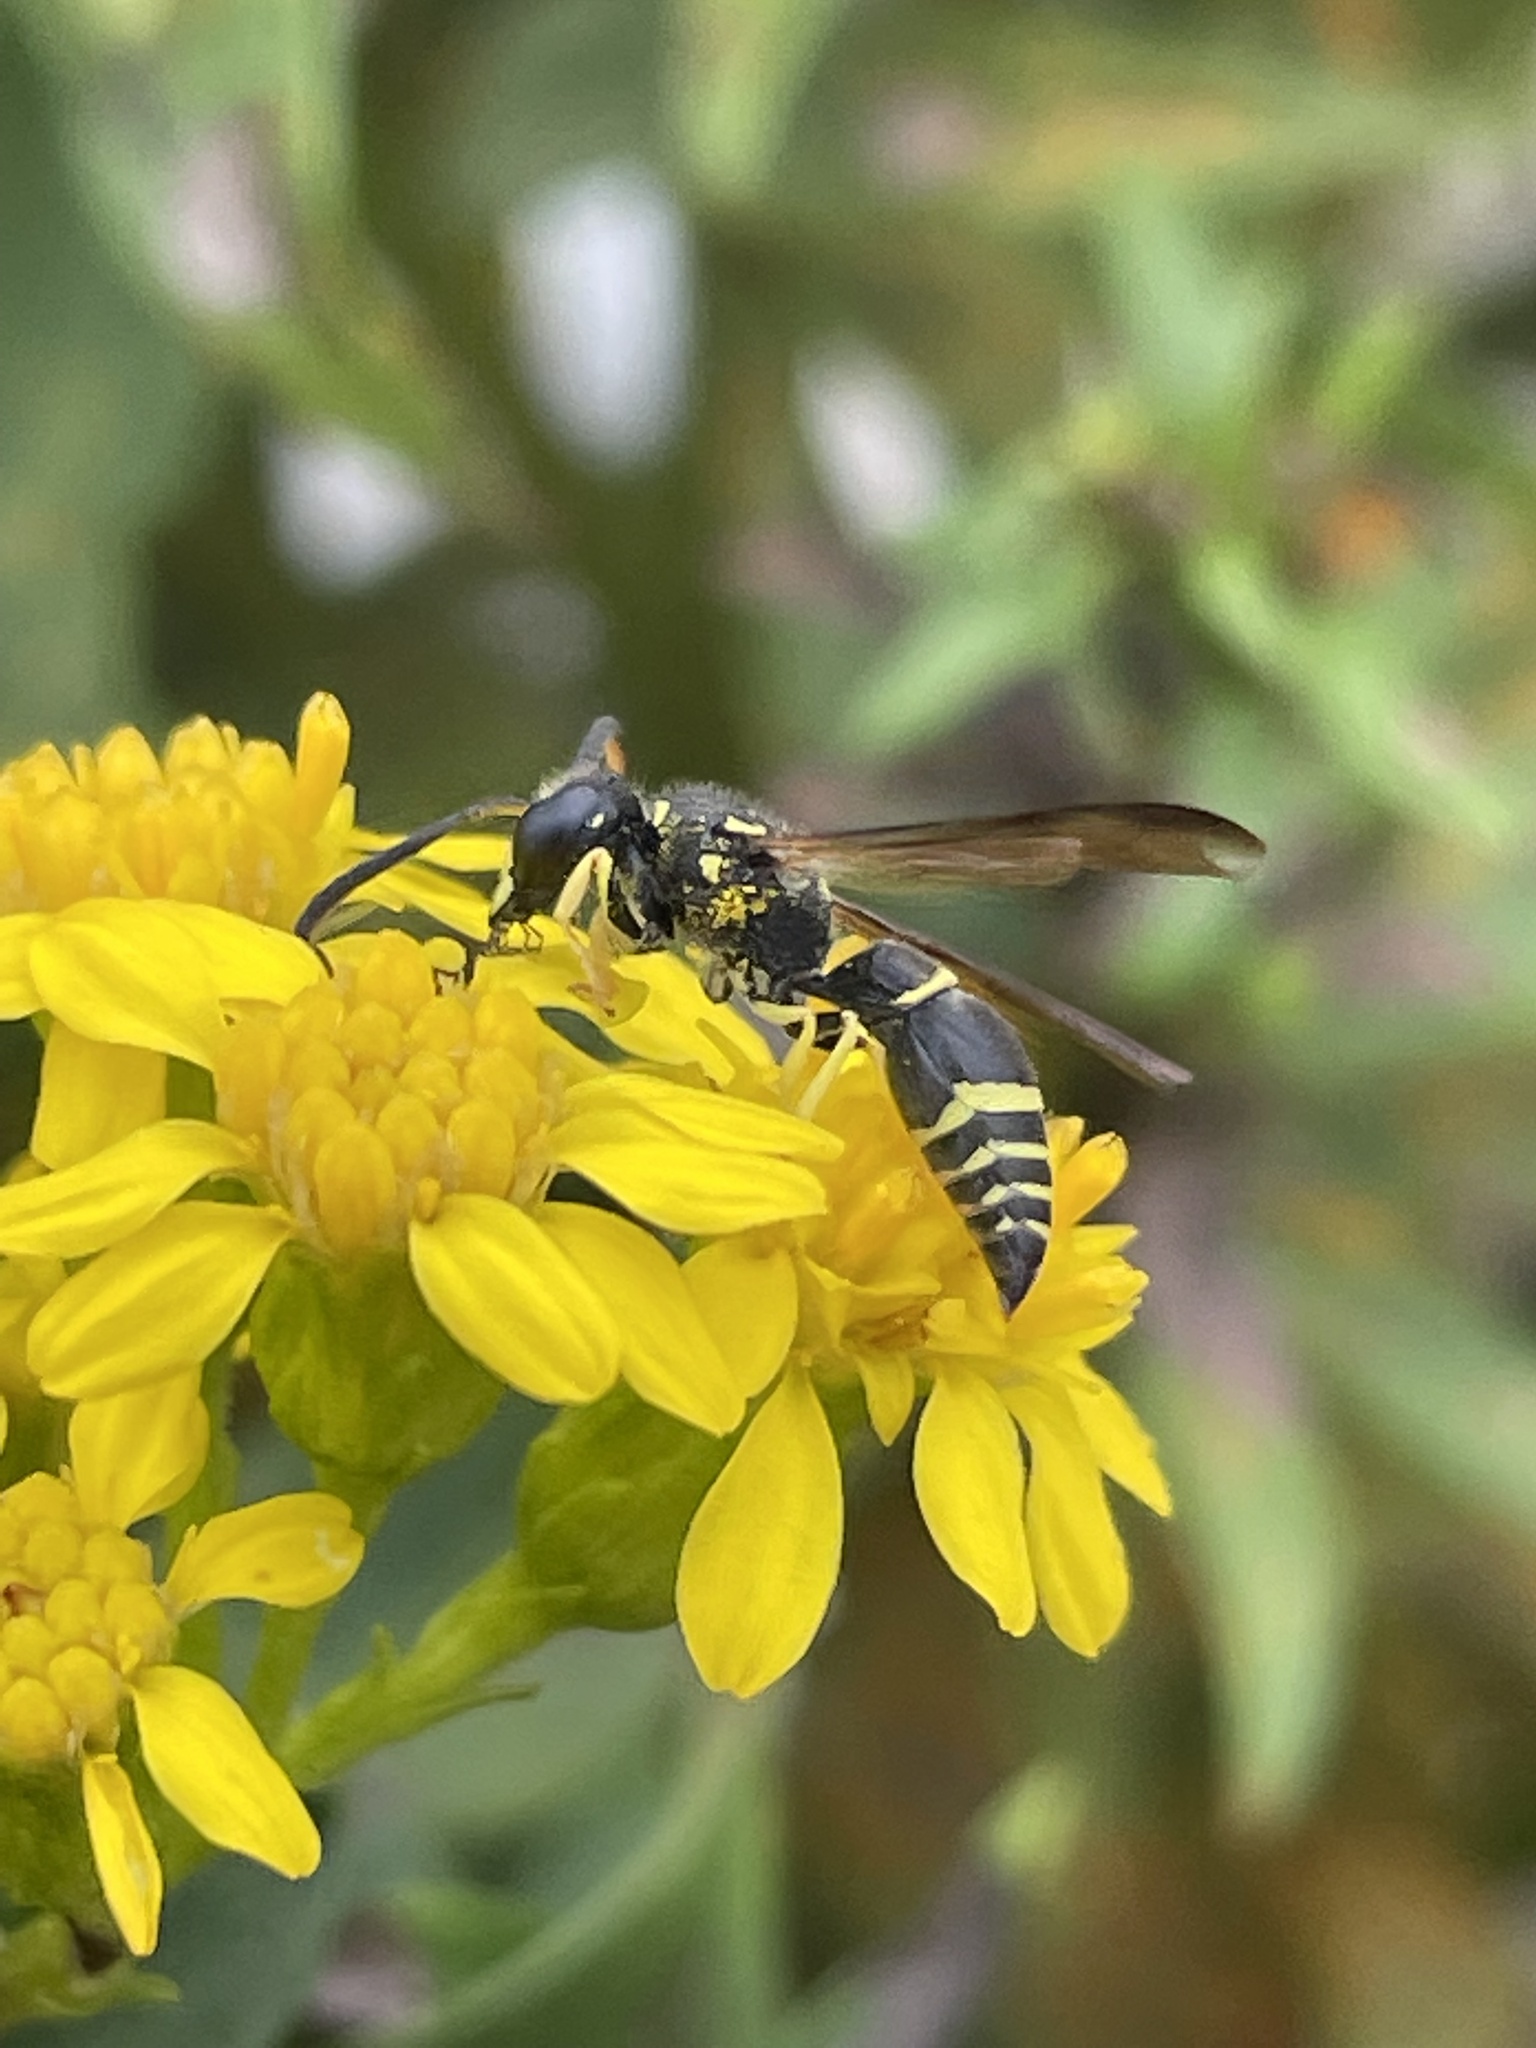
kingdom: Animalia
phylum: Arthropoda
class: Insecta
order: Hymenoptera
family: Vespidae
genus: Ancistrocerus
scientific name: Ancistrocerus adiabatus
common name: Bramble mason wasp
